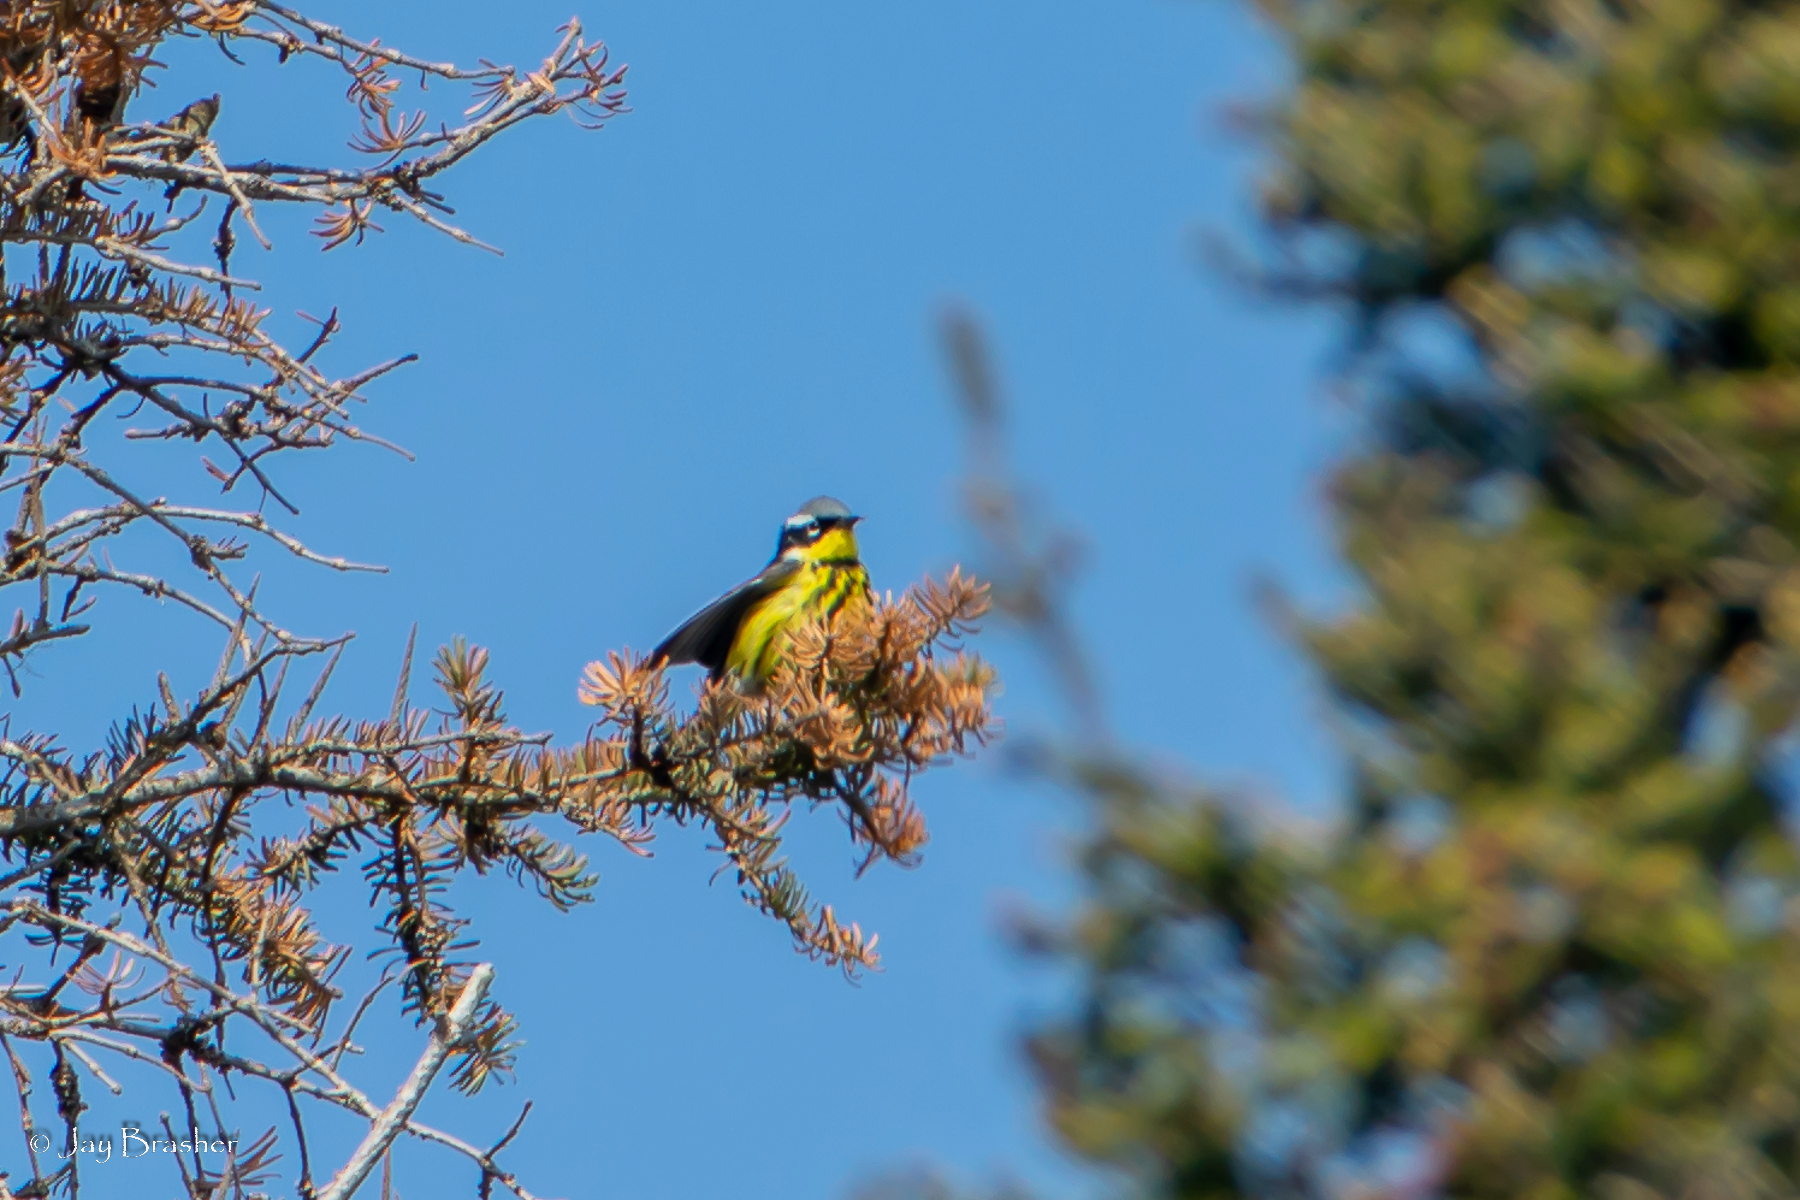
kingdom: Animalia
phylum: Chordata
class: Aves
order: Passeriformes
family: Parulidae
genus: Setophaga
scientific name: Setophaga magnolia
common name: Magnolia warbler
